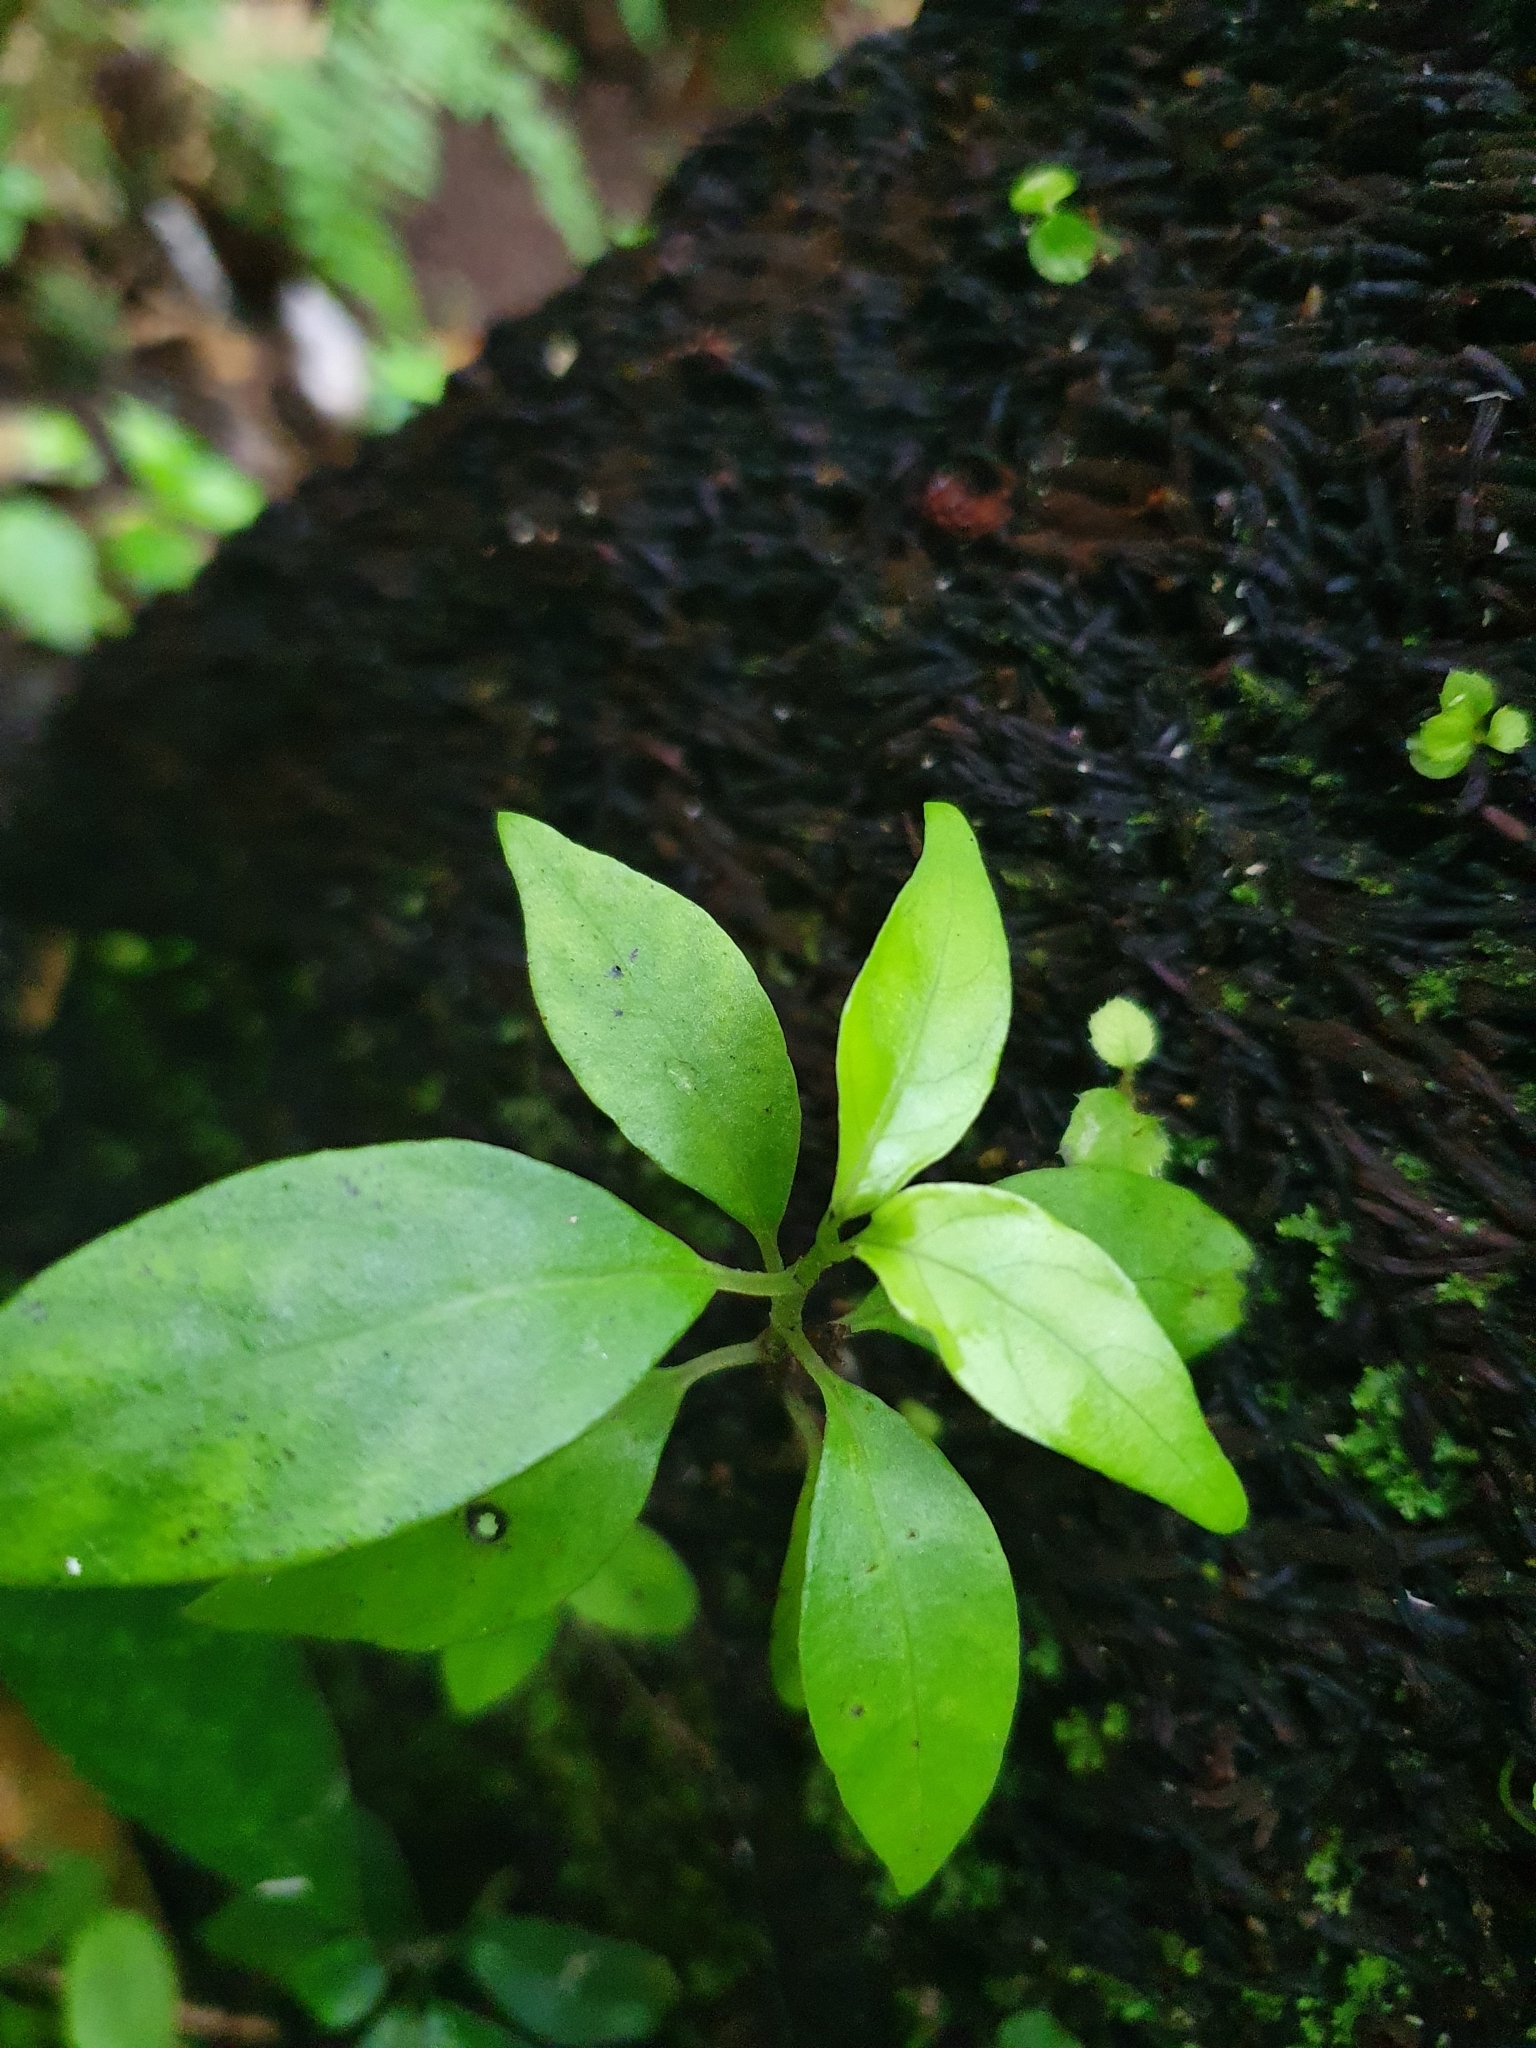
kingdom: Plantae
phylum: Tracheophyta
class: Magnoliopsida
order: Gentianales
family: Loganiaceae
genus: Geniostoma
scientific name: Geniostoma ligustrifolium
